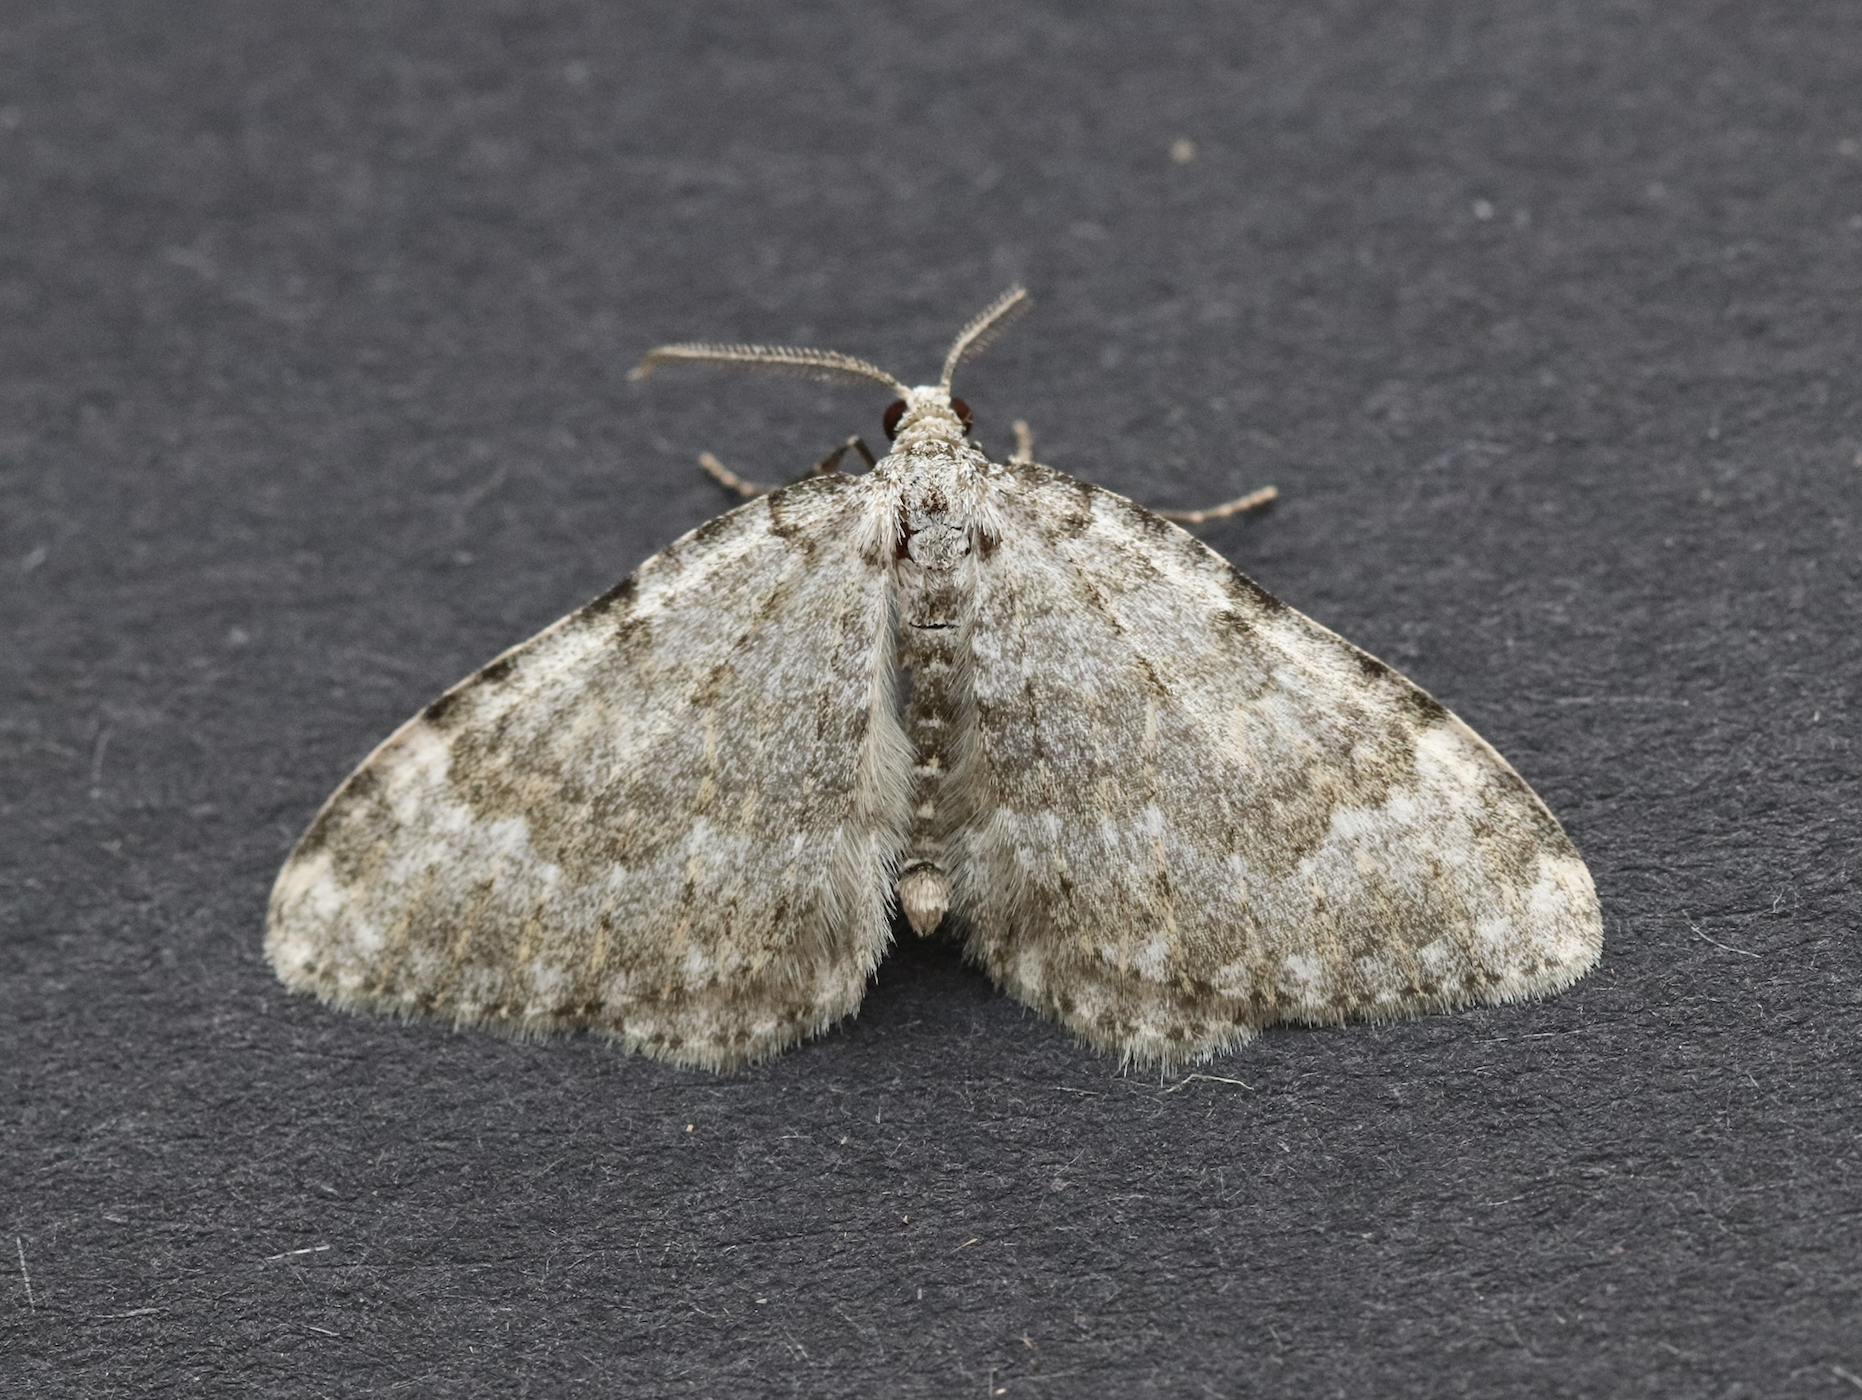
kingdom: Animalia
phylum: Arthropoda
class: Insecta
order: Lepidoptera
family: Geometridae
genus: Nebula
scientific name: Nebula salicata
